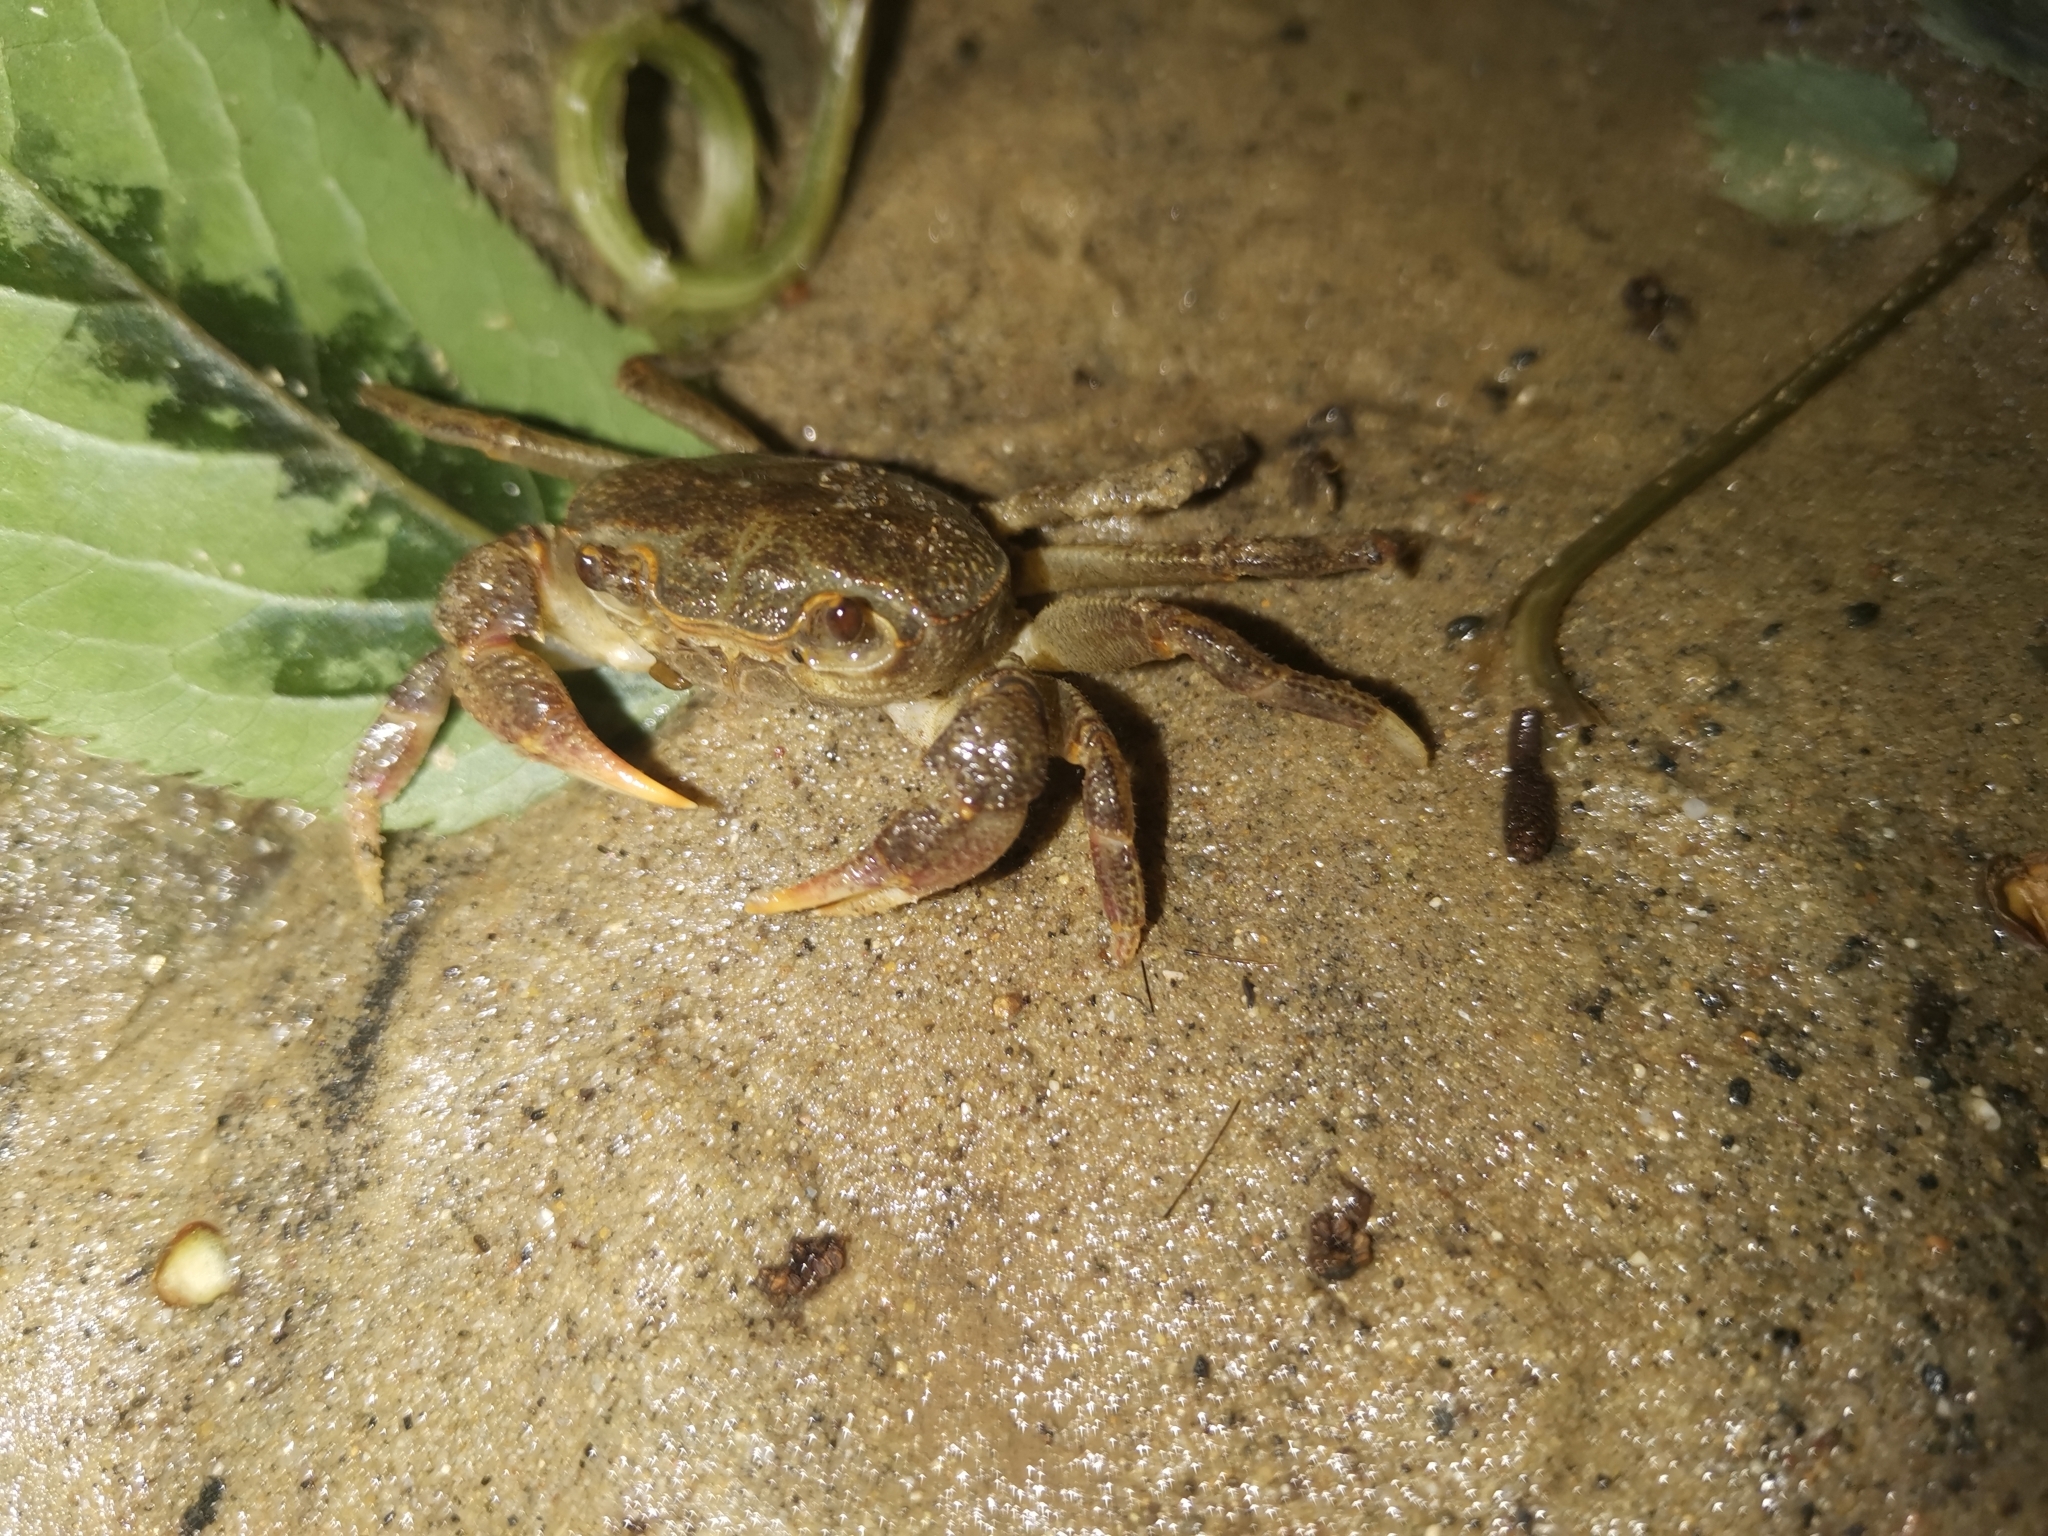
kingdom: Animalia
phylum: Arthropoda
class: Malacostraca
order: Decapoda
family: Potamidae
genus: Potamon
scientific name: Potamon fluviatile
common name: Italian freshwater crab
